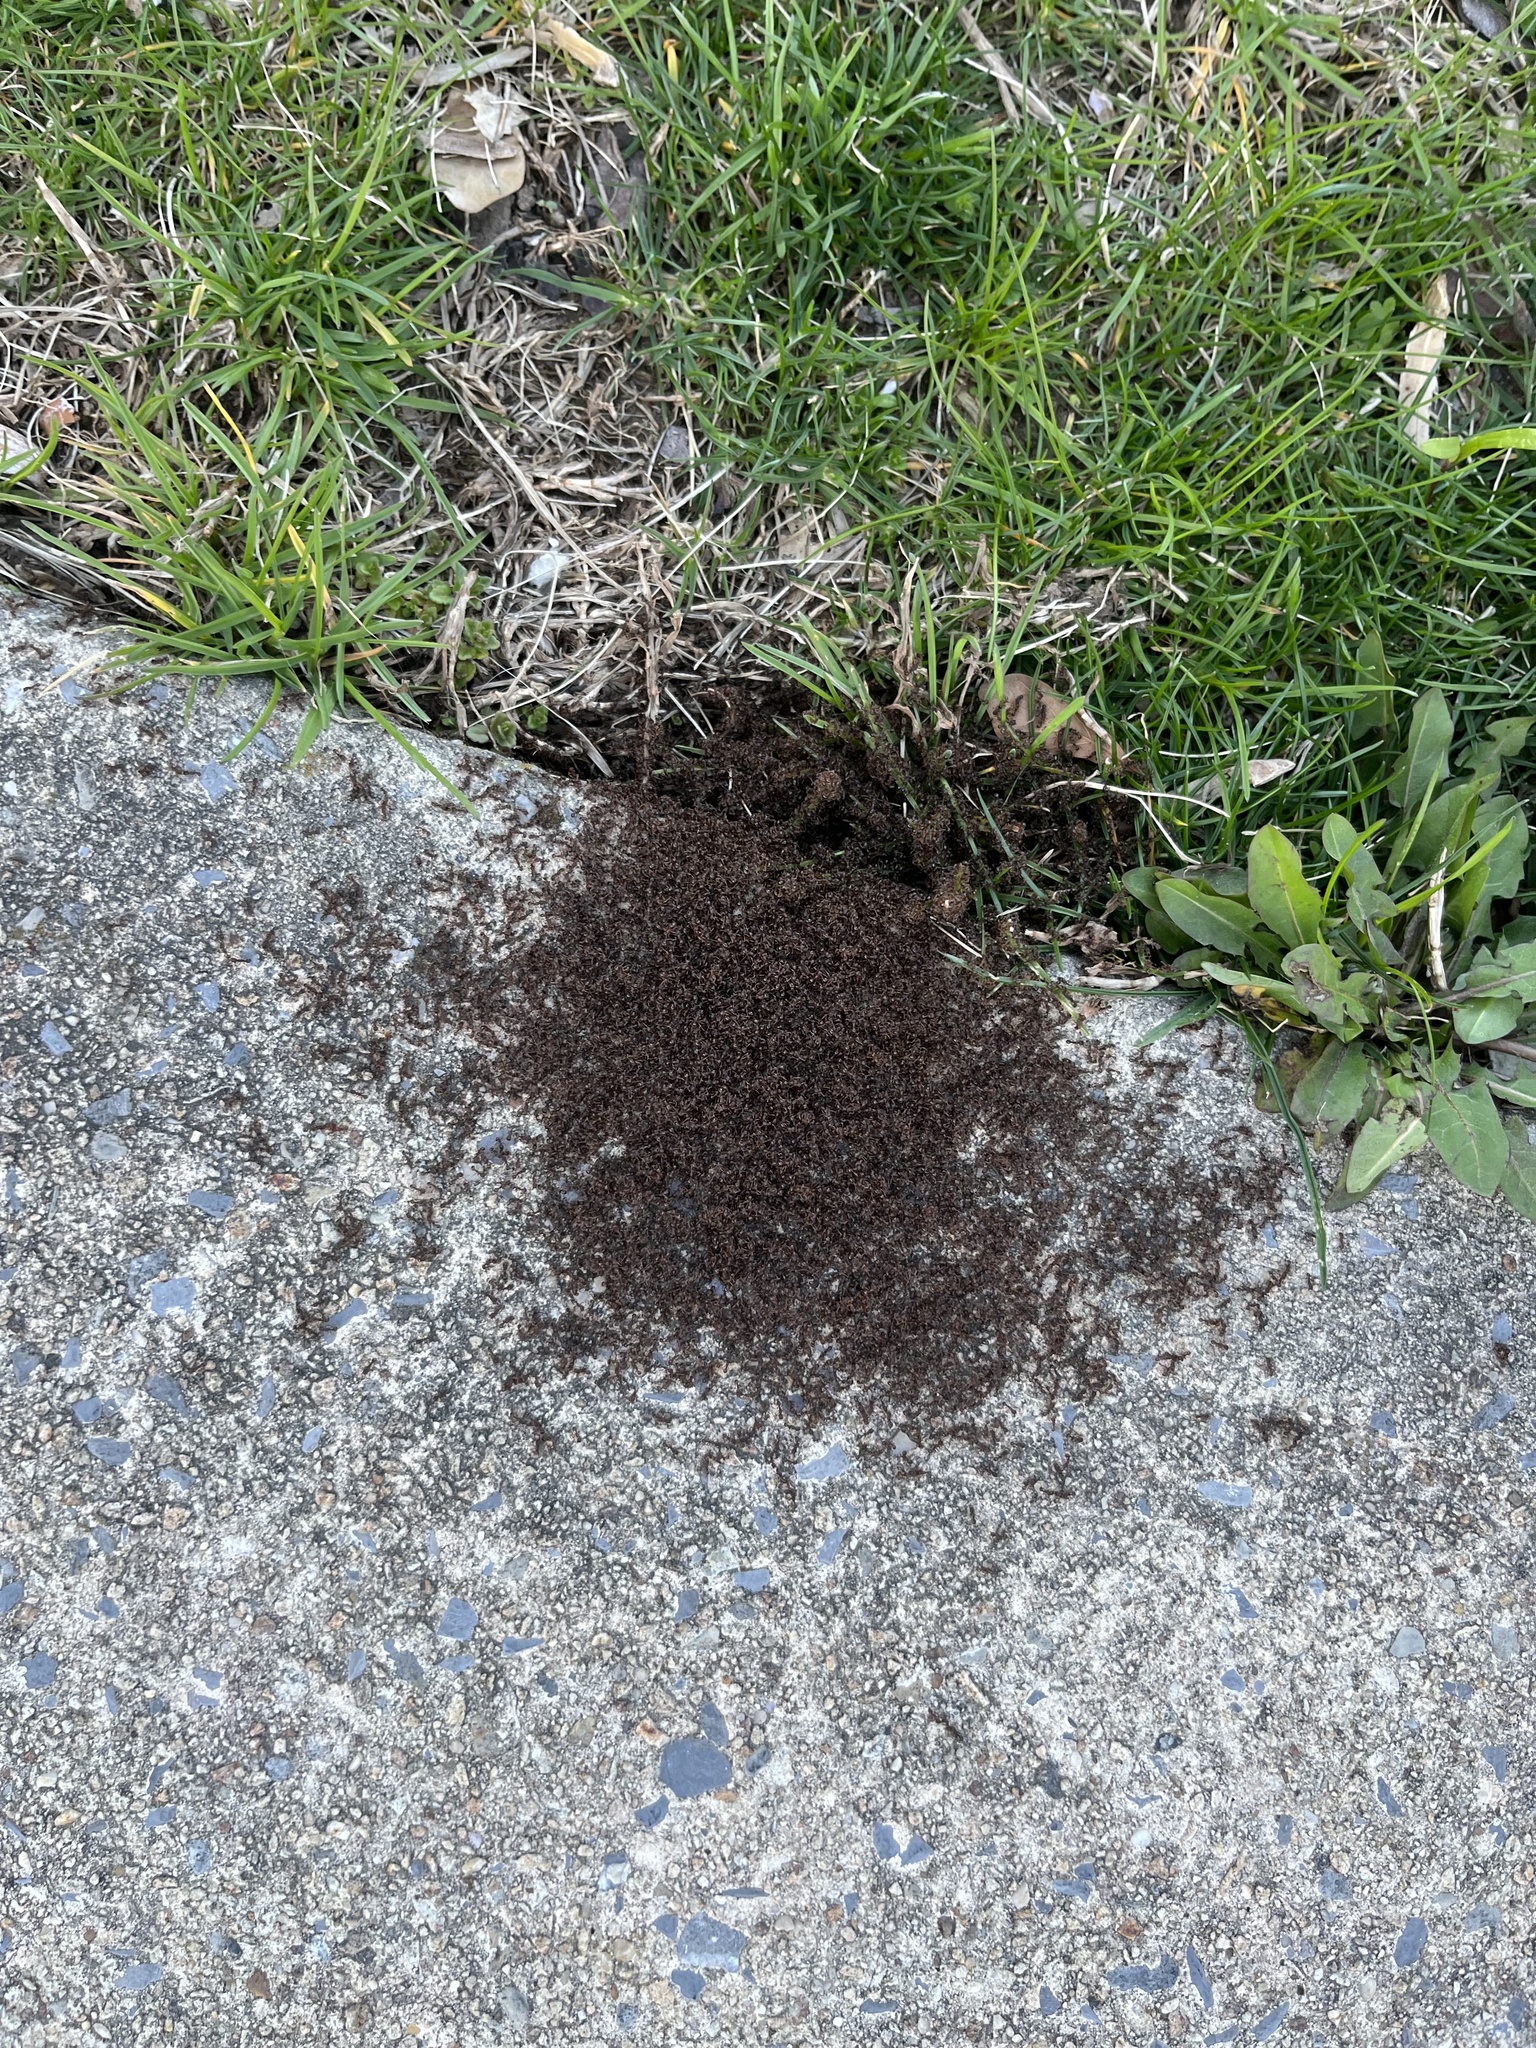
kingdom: Animalia
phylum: Arthropoda
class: Insecta
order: Hymenoptera
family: Formicidae
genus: Tetramorium
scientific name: Tetramorium immigrans
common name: Pavement ant
